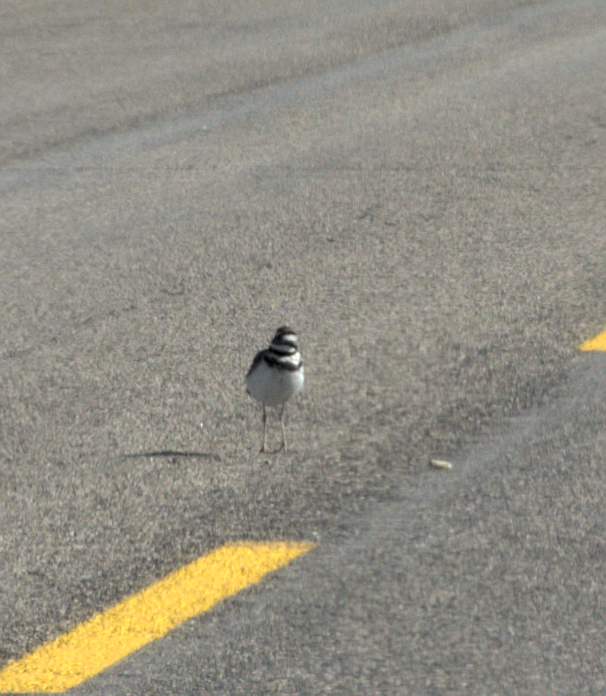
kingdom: Animalia
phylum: Chordata
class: Aves
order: Charadriiformes
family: Charadriidae
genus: Charadrius
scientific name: Charadrius vociferus
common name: Killdeer
